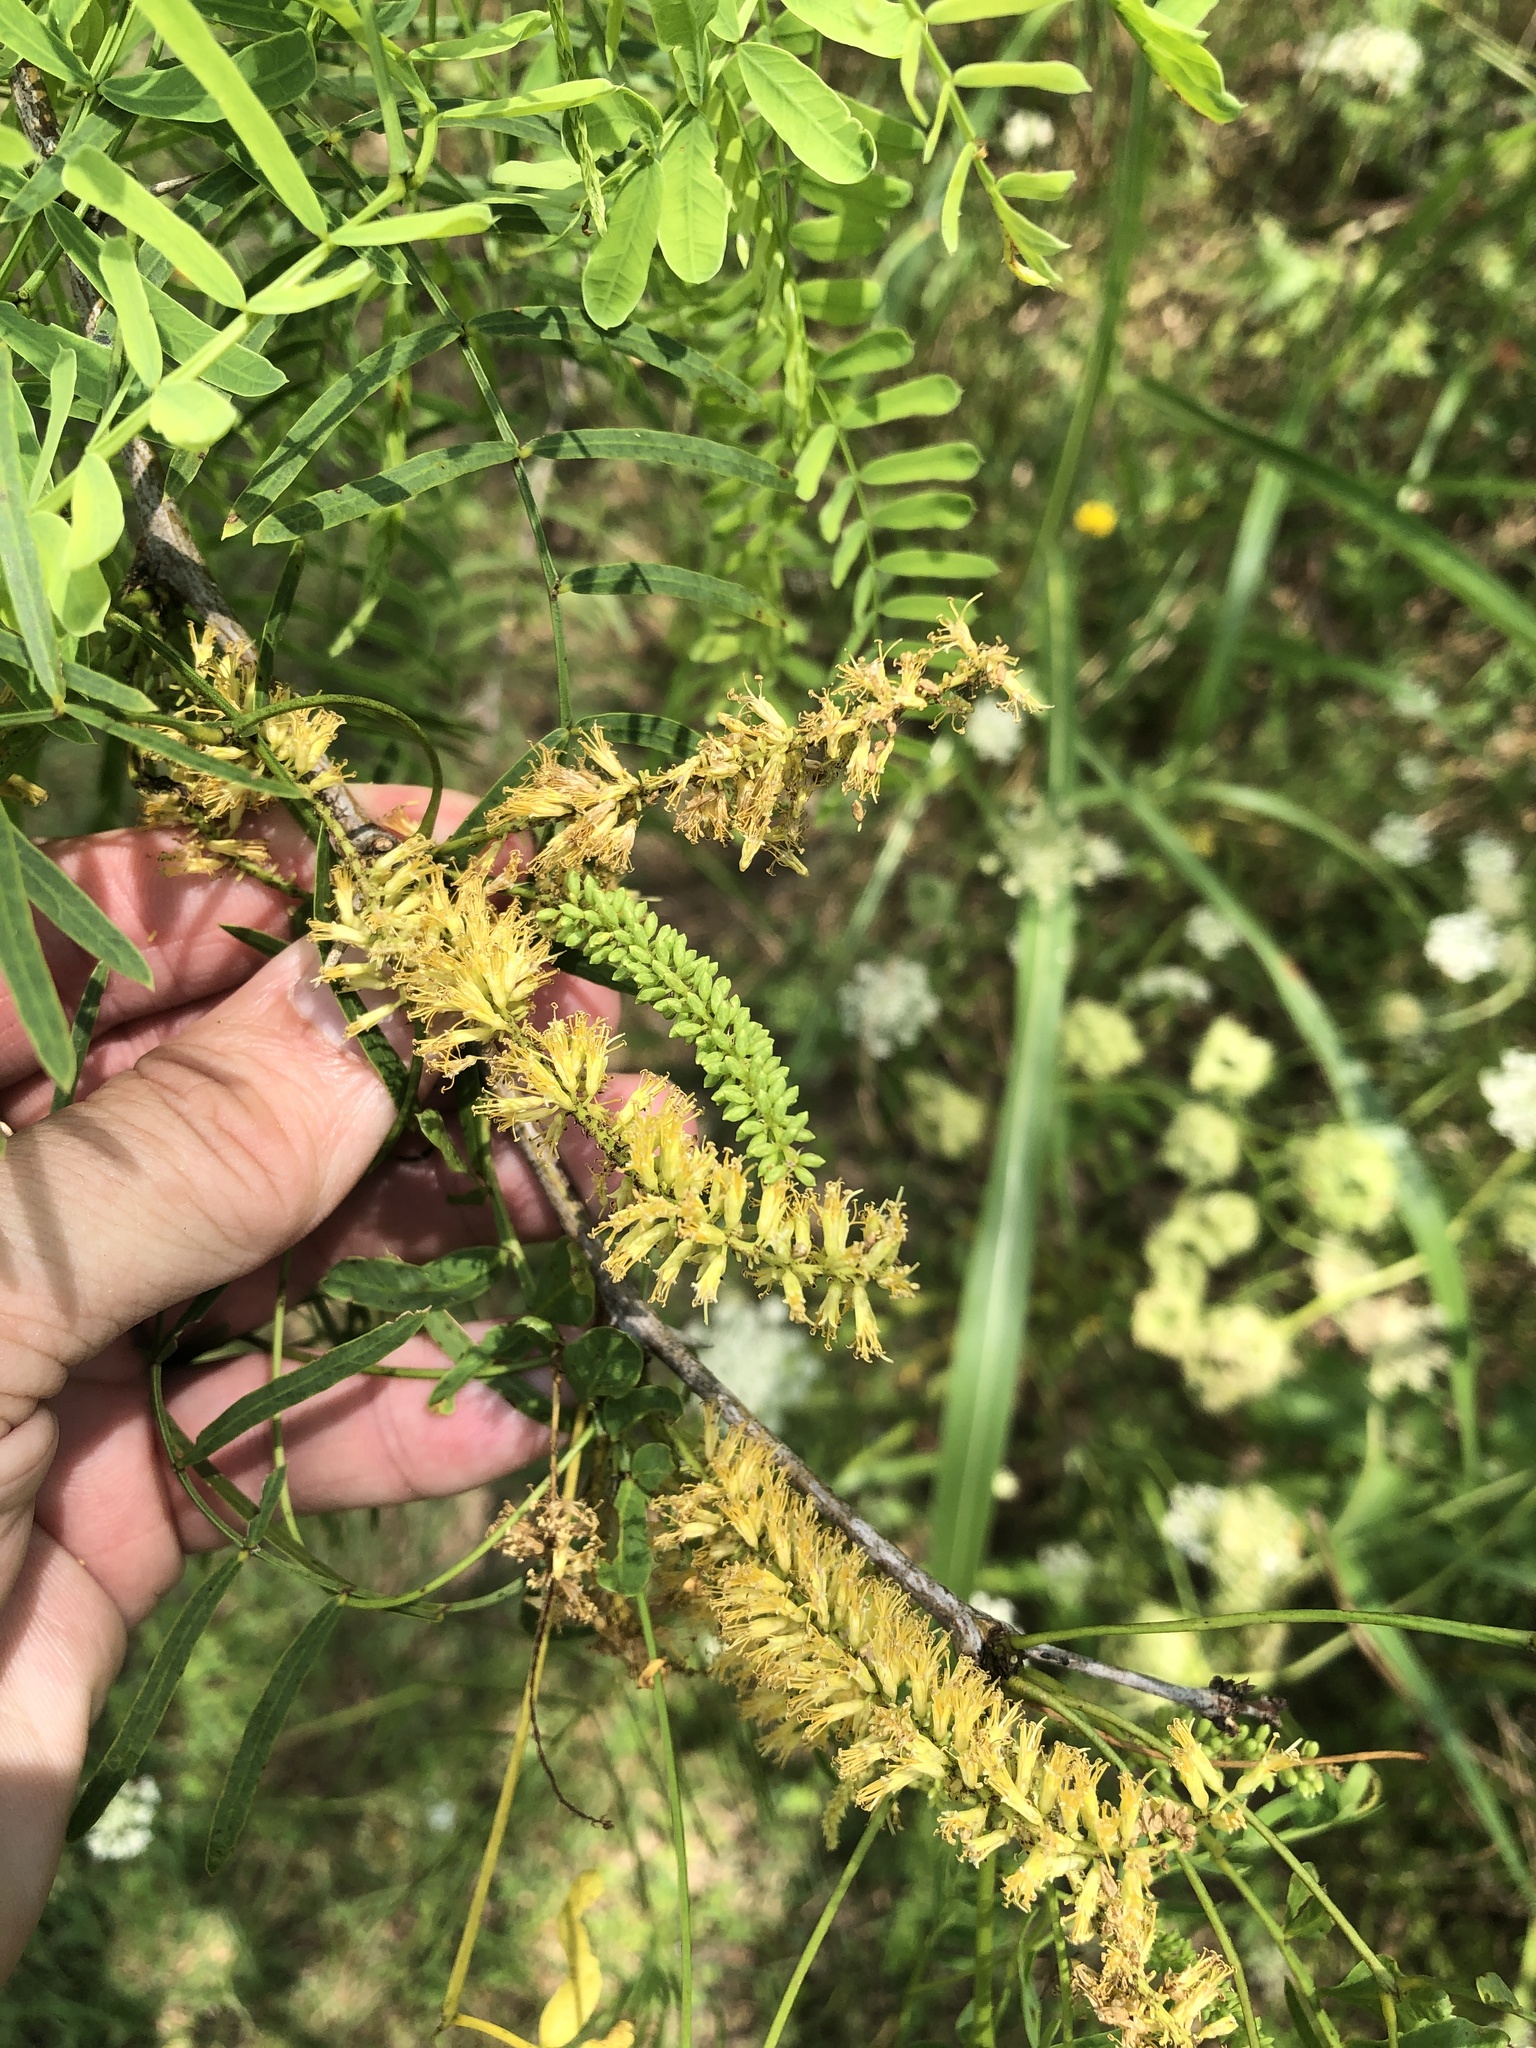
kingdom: Plantae
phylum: Tracheophyta
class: Magnoliopsida
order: Fabales
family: Fabaceae
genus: Prosopis
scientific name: Prosopis glandulosa
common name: Honey mesquite
